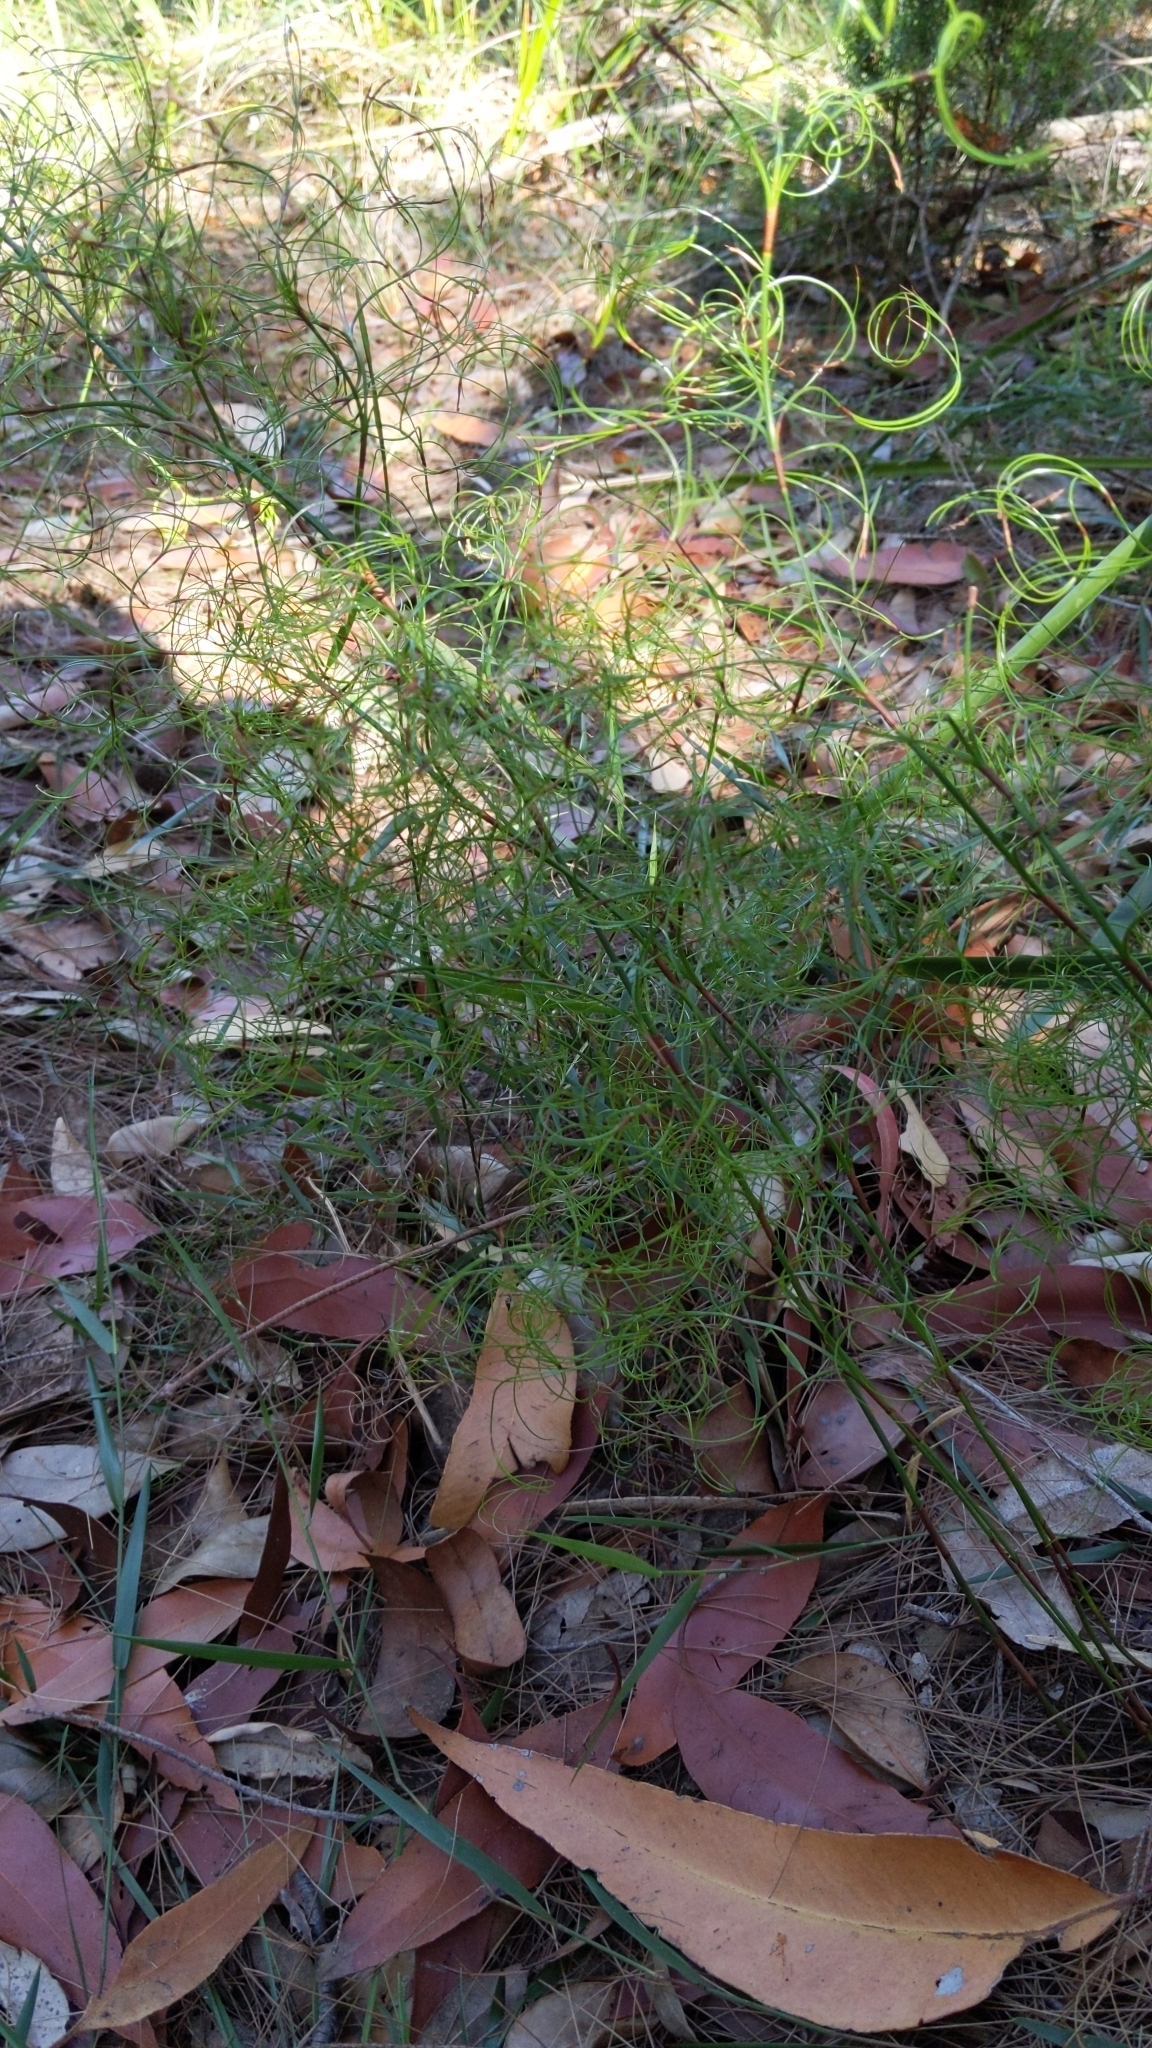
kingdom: Plantae
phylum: Tracheophyta
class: Liliopsida
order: Poales
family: Cyperaceae
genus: Caustis
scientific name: Caustis flexuosa
